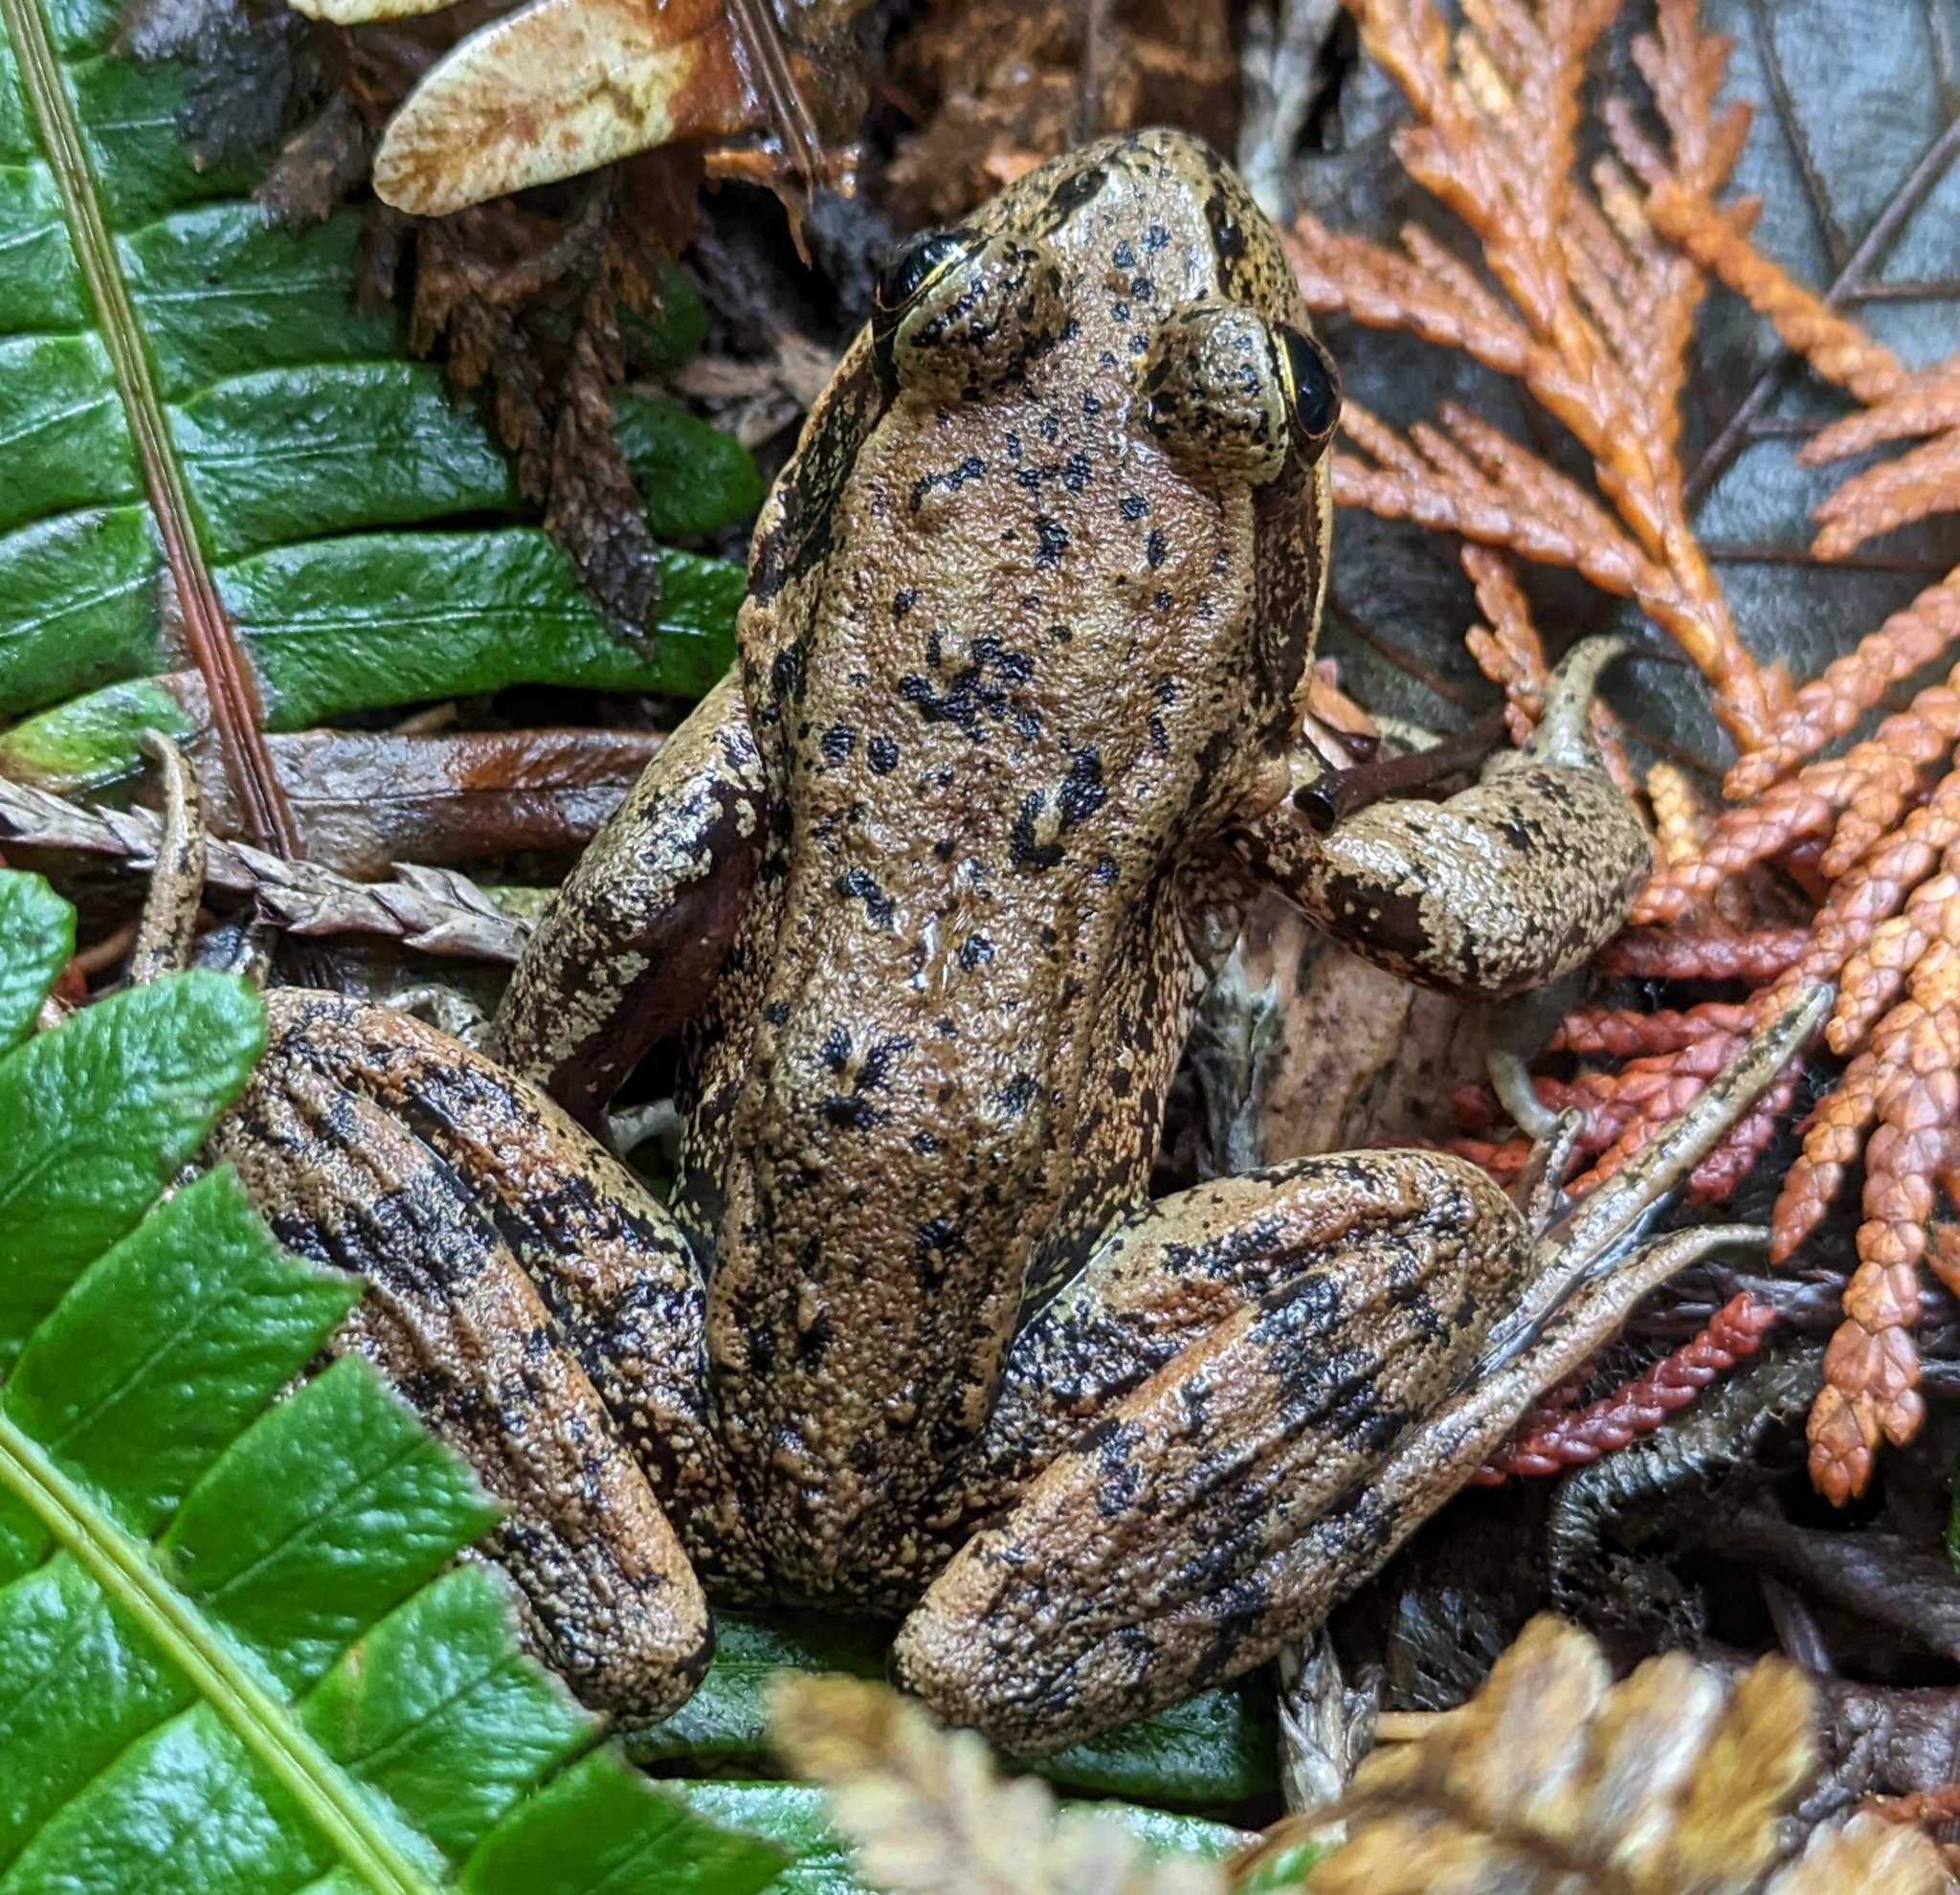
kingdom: Animalia
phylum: Chordata
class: Amphibia
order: Anura
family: Ranidae
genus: Rana
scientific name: Rana aurora
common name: Red-legged frog
